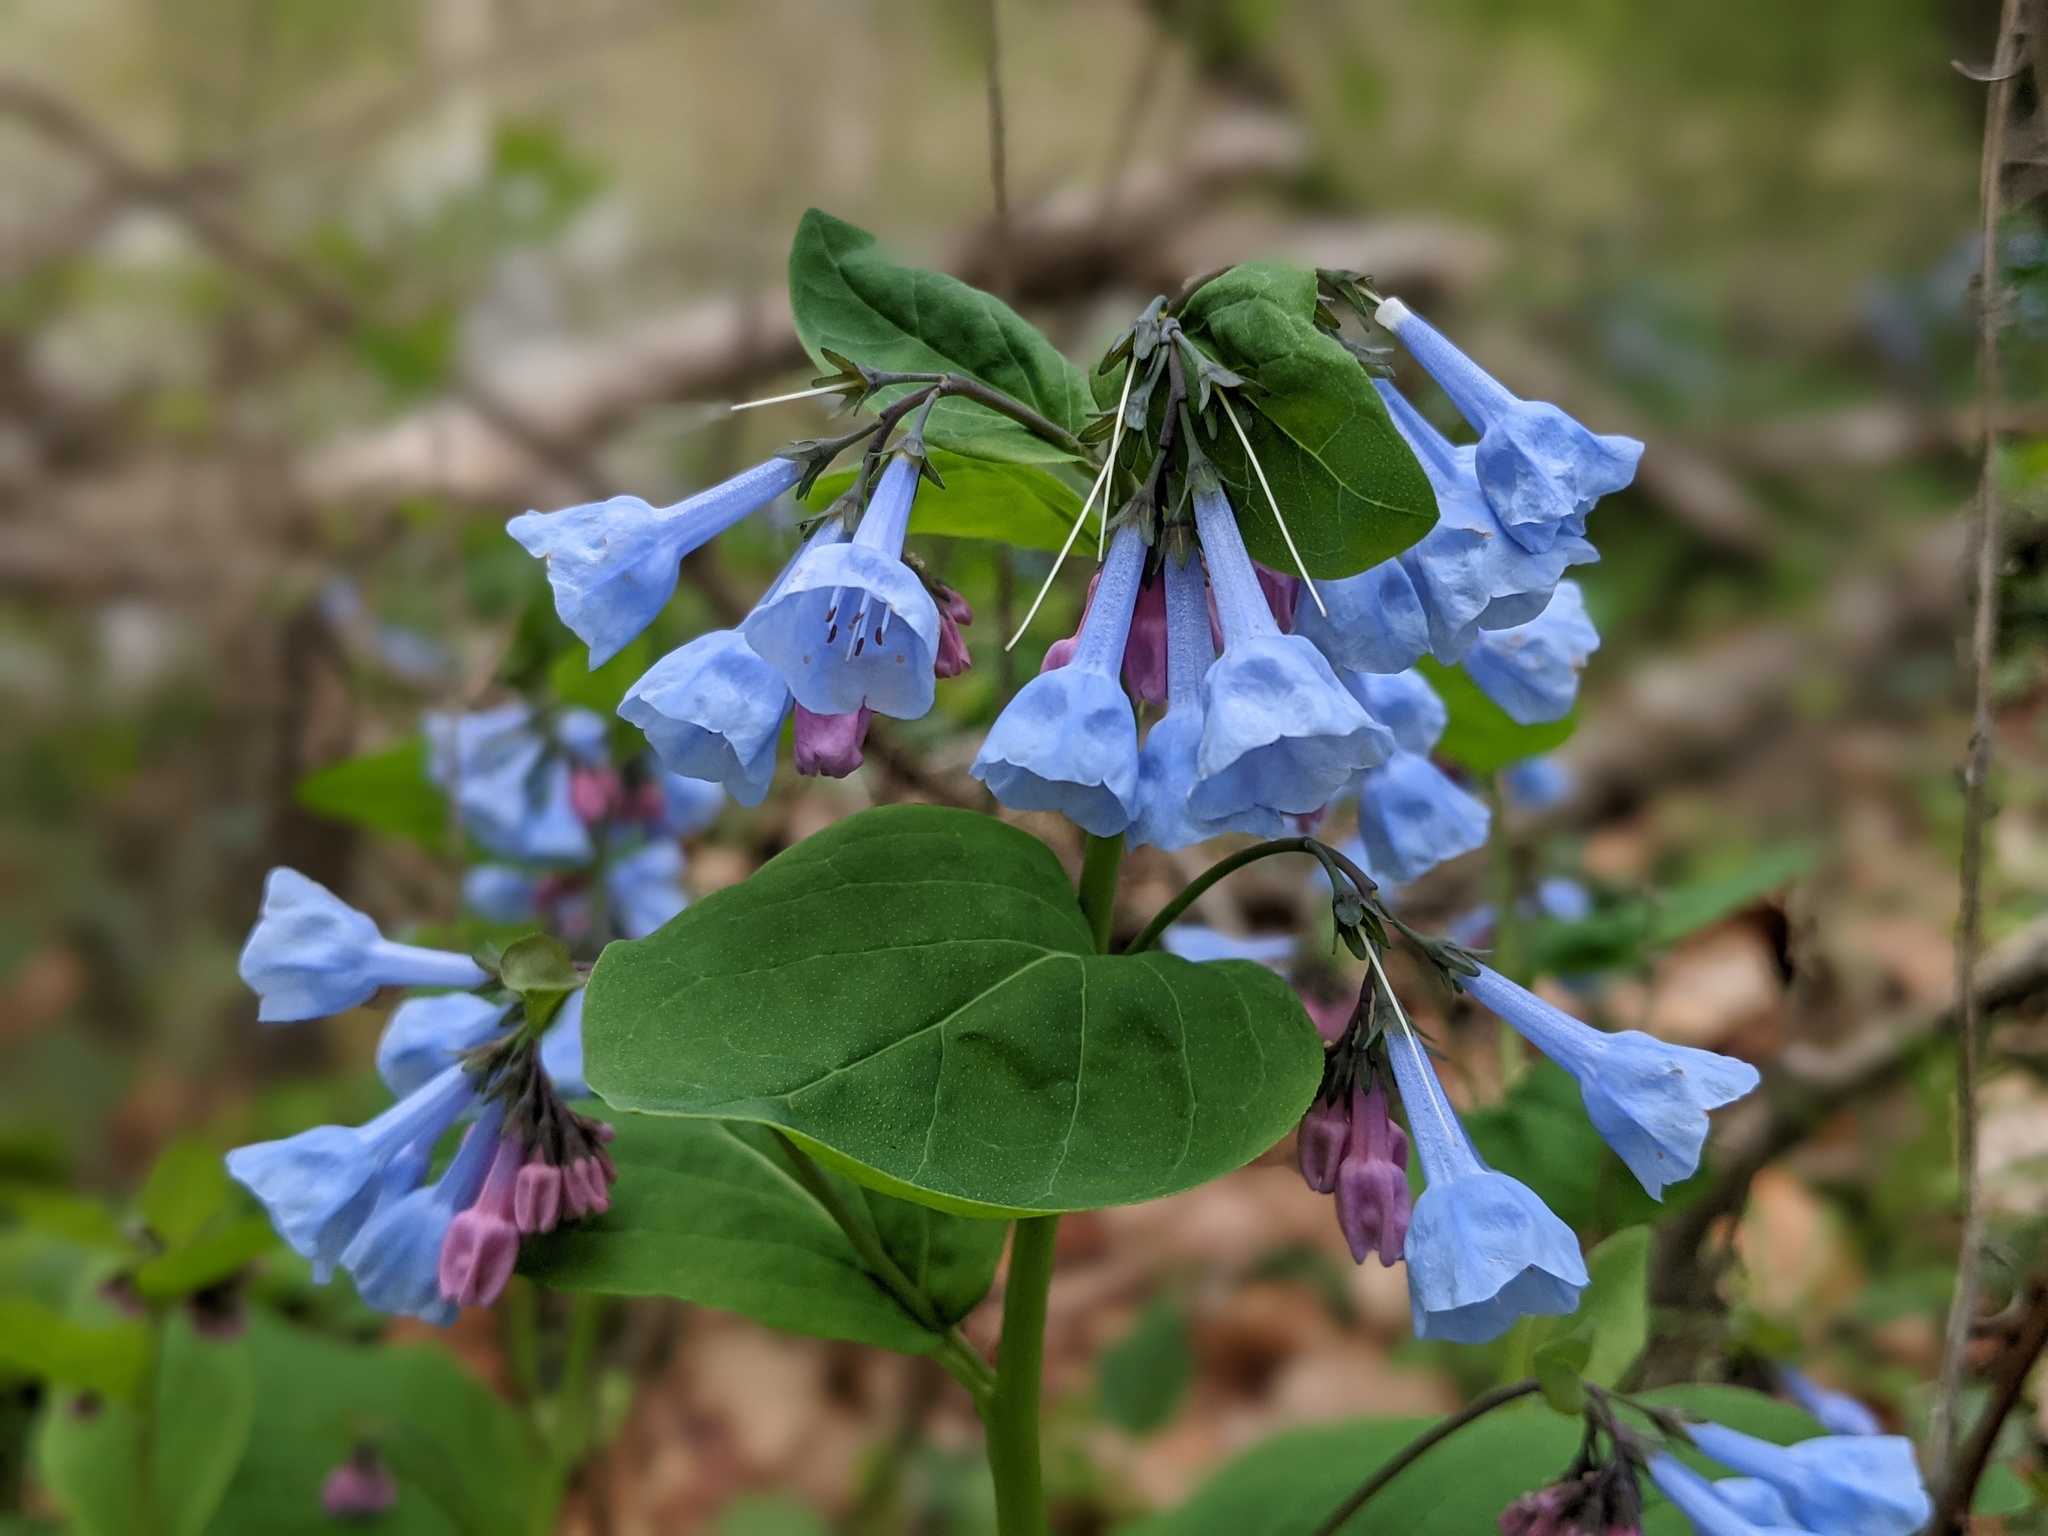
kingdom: Plantae
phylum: Tracheophyta
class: Magnoliopsida
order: Boraginales
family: Boraginaceae
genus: Mertensia
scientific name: Mertensia virginica
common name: Virginia bluebells
